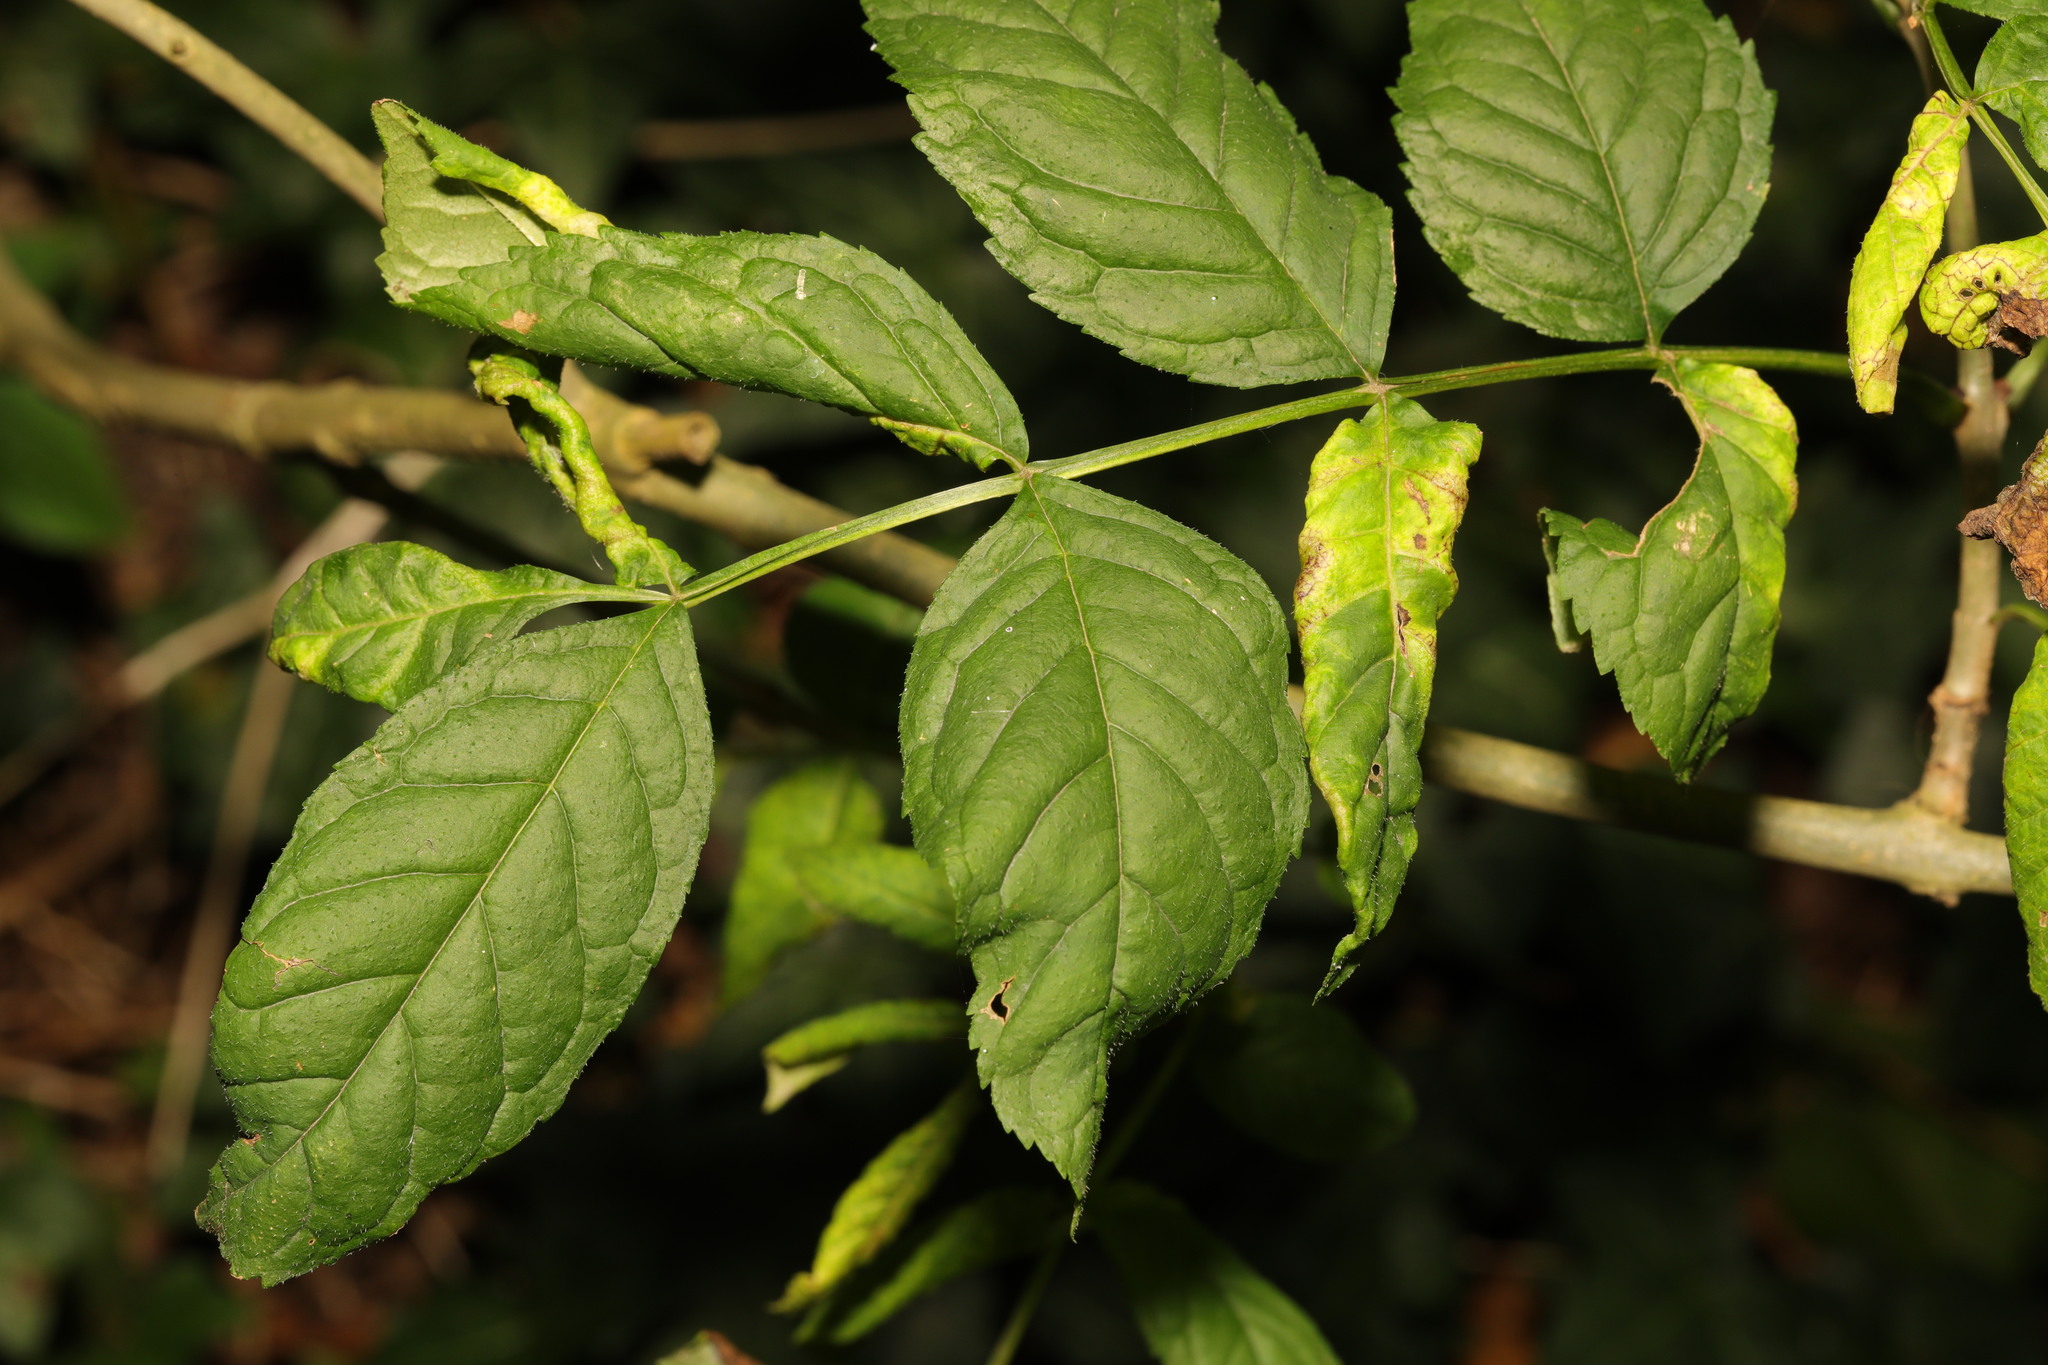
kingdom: Plantae
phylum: Tracheophyta
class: Magnoliopsida
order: Lamiales
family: Oleaceae
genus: Fraxinus
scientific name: Fraxinus excelsior
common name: European ash
